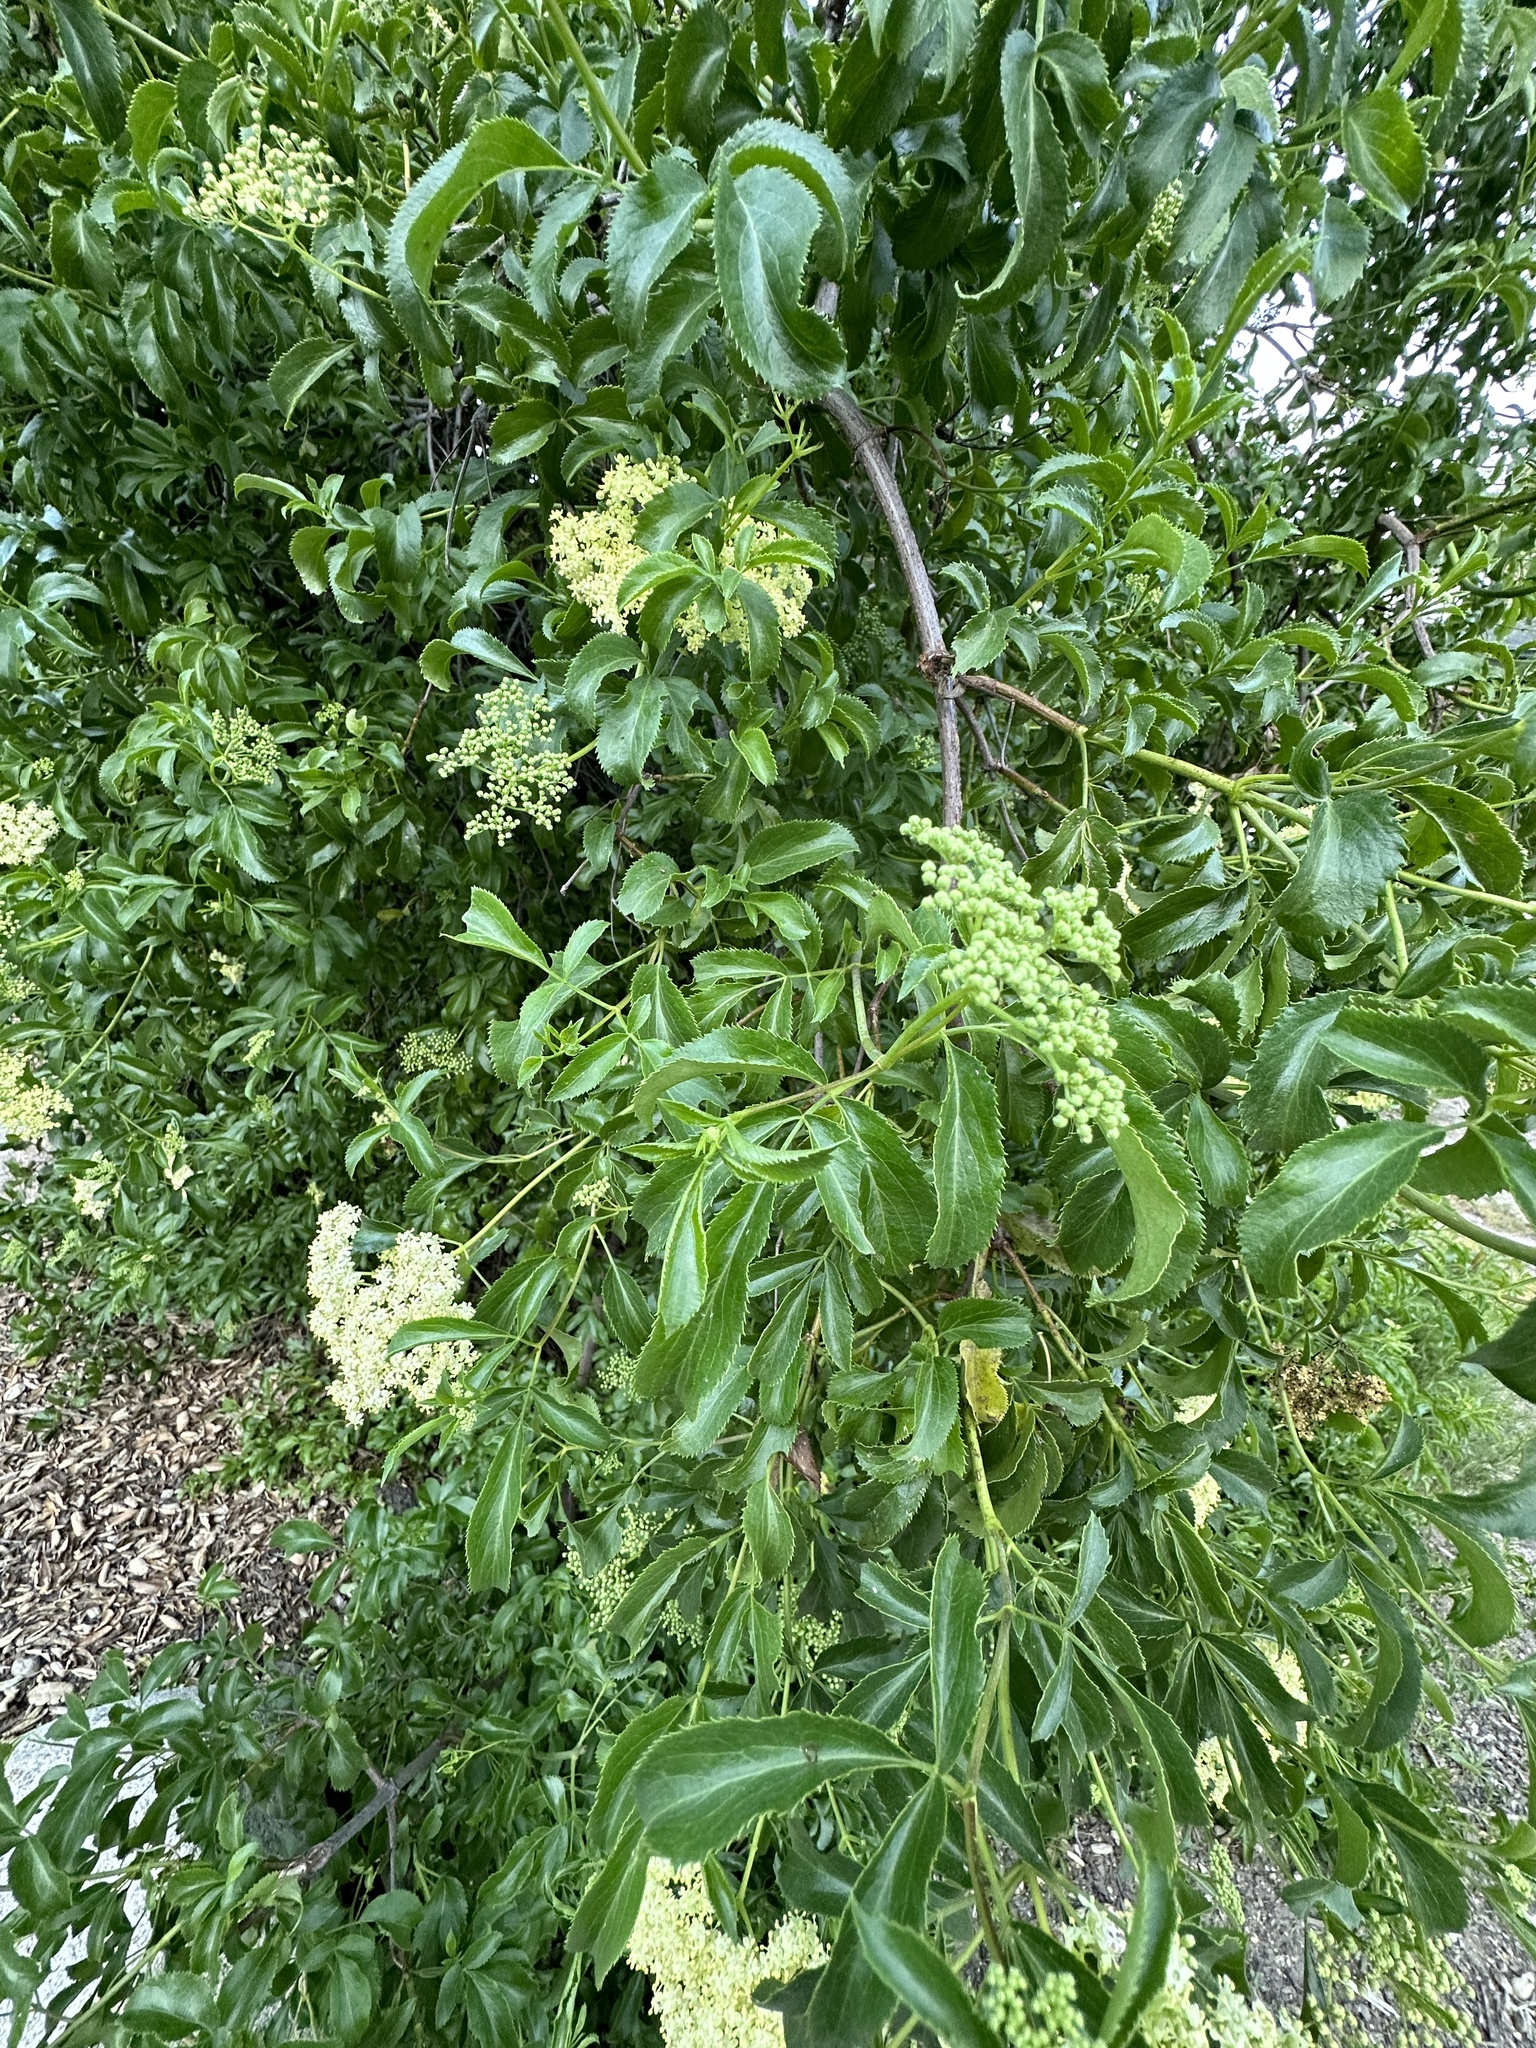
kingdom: Plantae
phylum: Tracheophyta
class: Magnoliopsida
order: Dipsacales
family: Viburnaceae
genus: Sambucus
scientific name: Sambucus cerulea
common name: Blue elder
